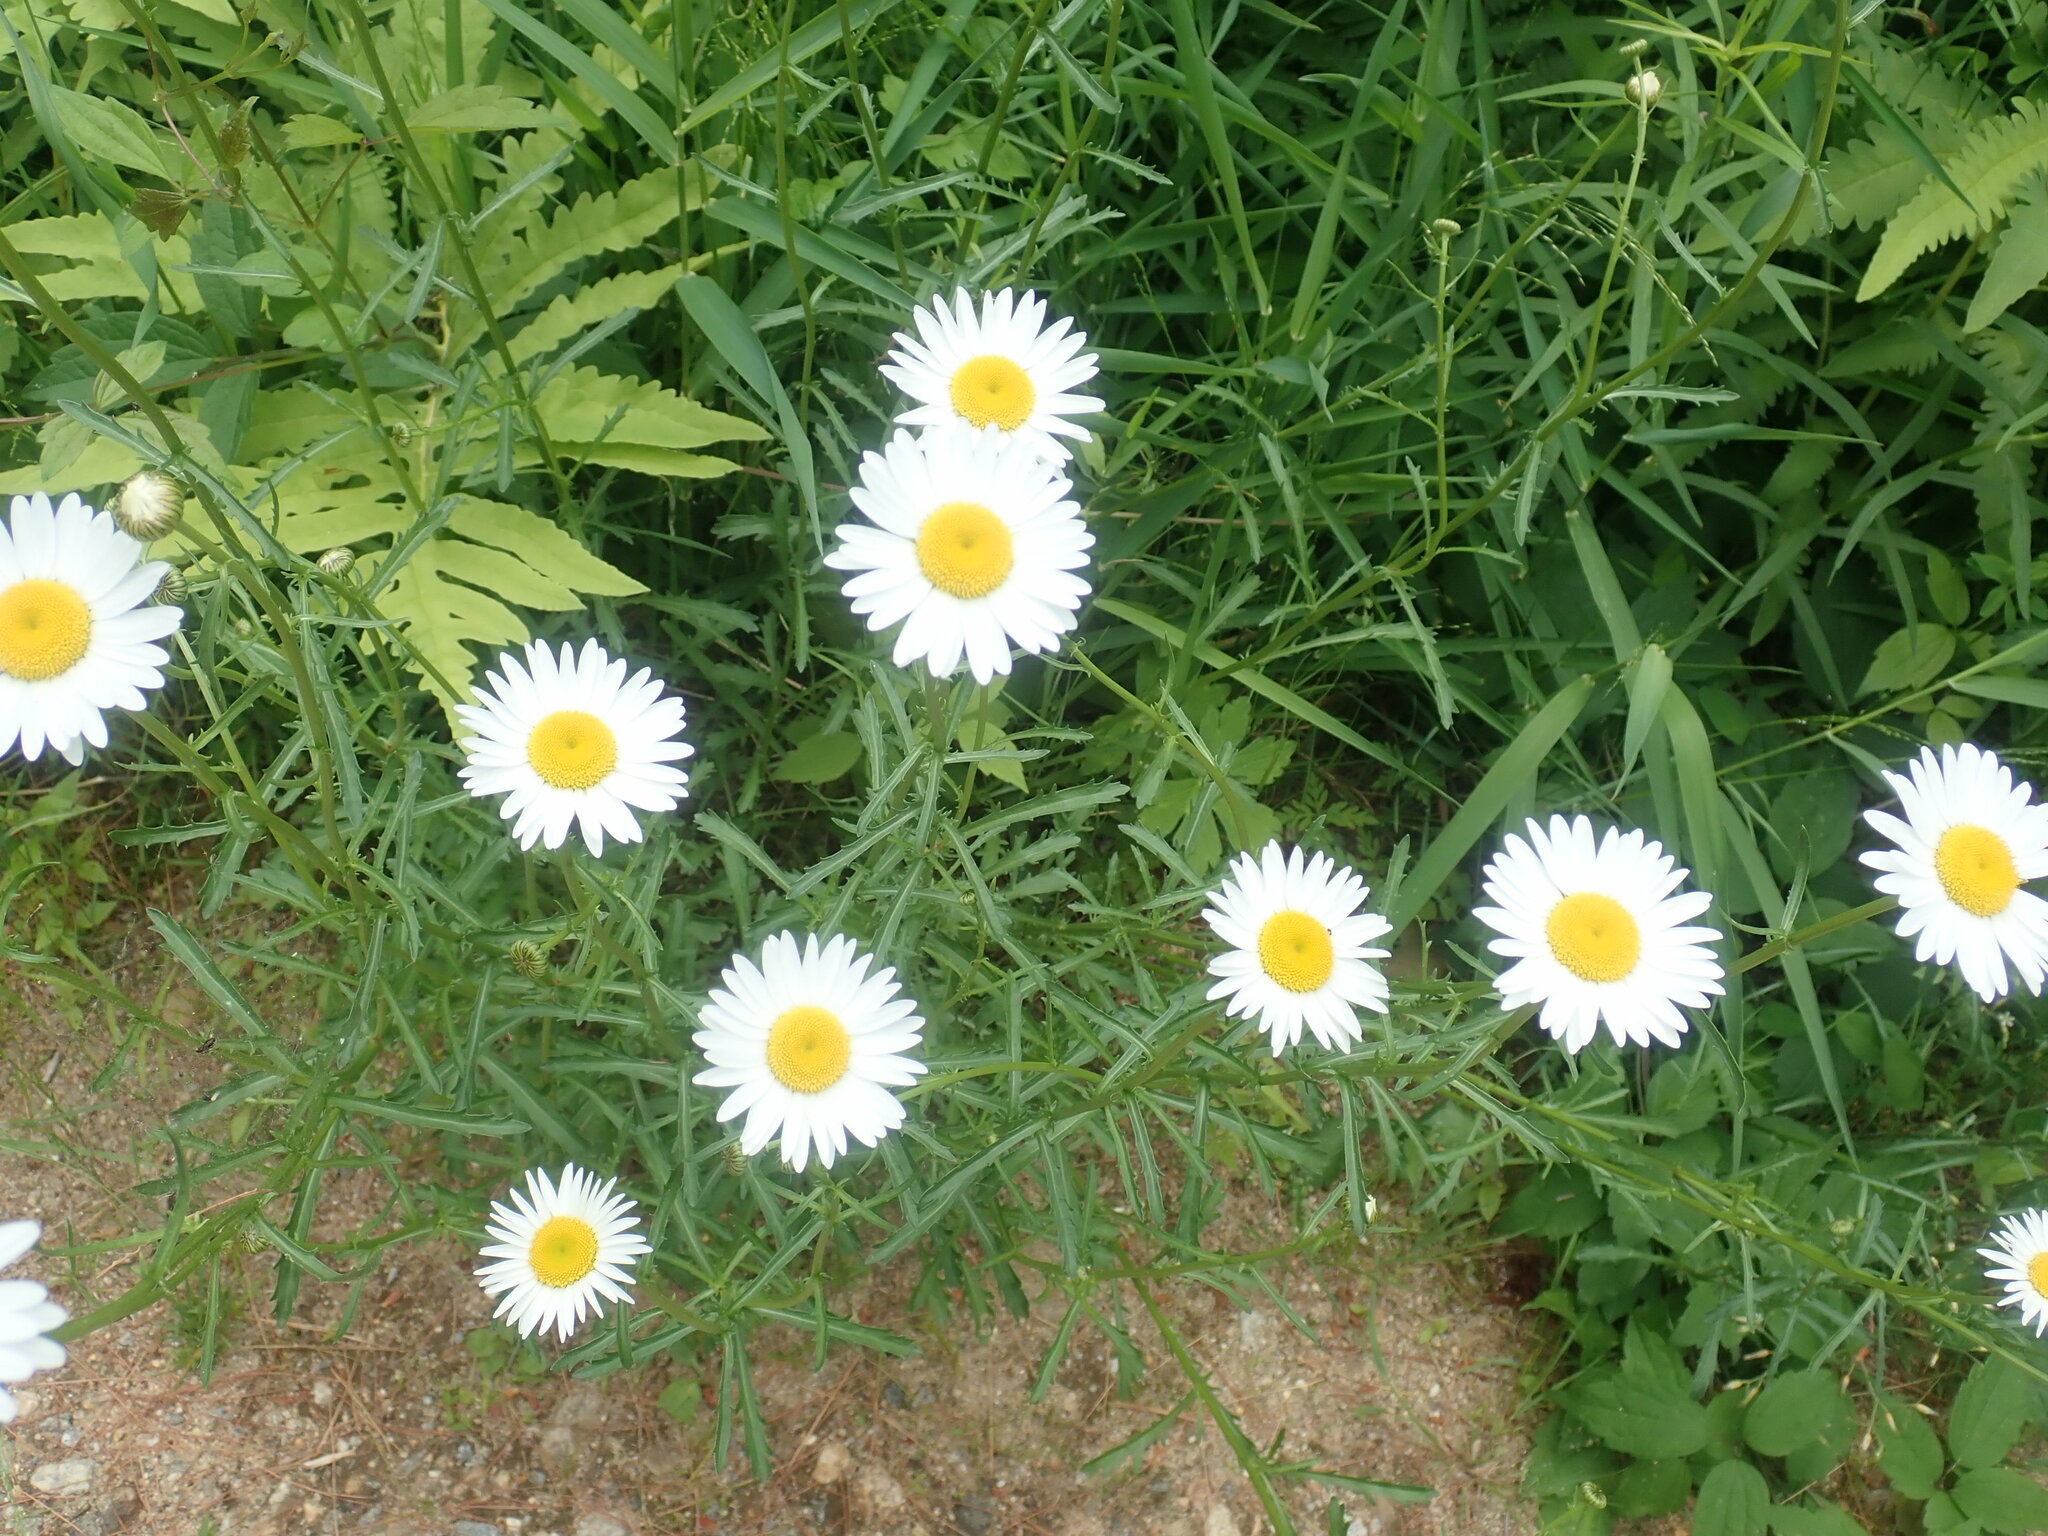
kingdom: Plantae
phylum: Tracheophyta
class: Magnoliopsida
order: Asterales
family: Asteraceae
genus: Leucanthemum
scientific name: Leucanthemum vulgare
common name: Oxeye daisy
